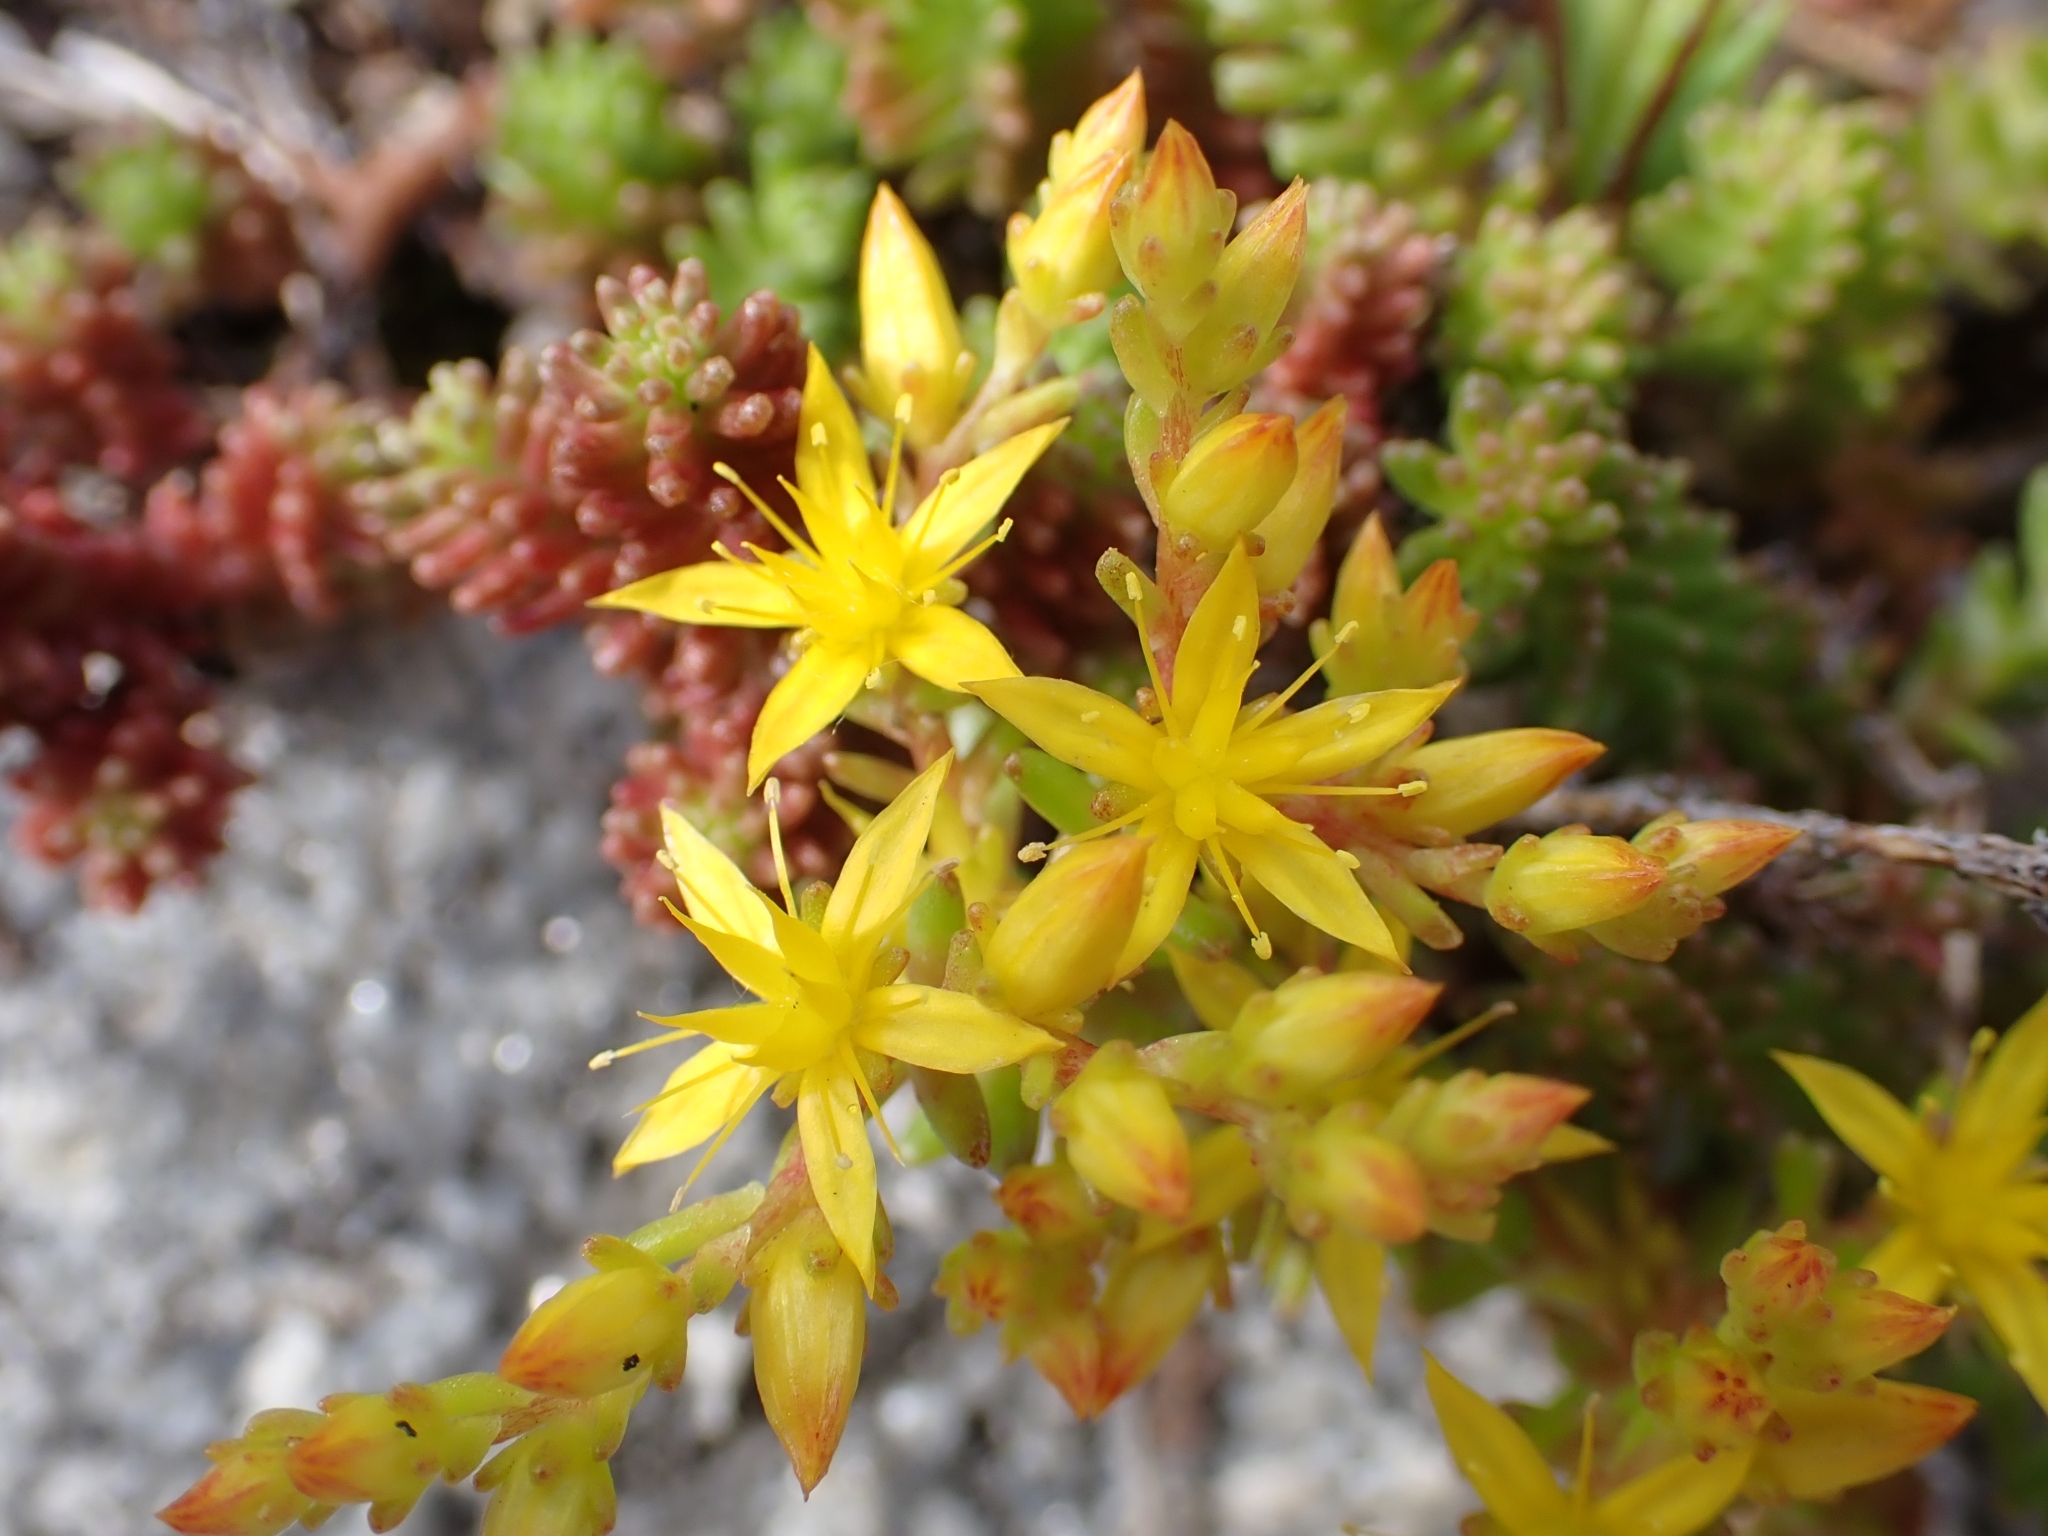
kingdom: Plantae
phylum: Tracheophyta
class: Magnoliopsida
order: Saxifragales
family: Crassulaceae
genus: Sedum
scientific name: Sedum sexangulare
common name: Tasteless stonecrop
